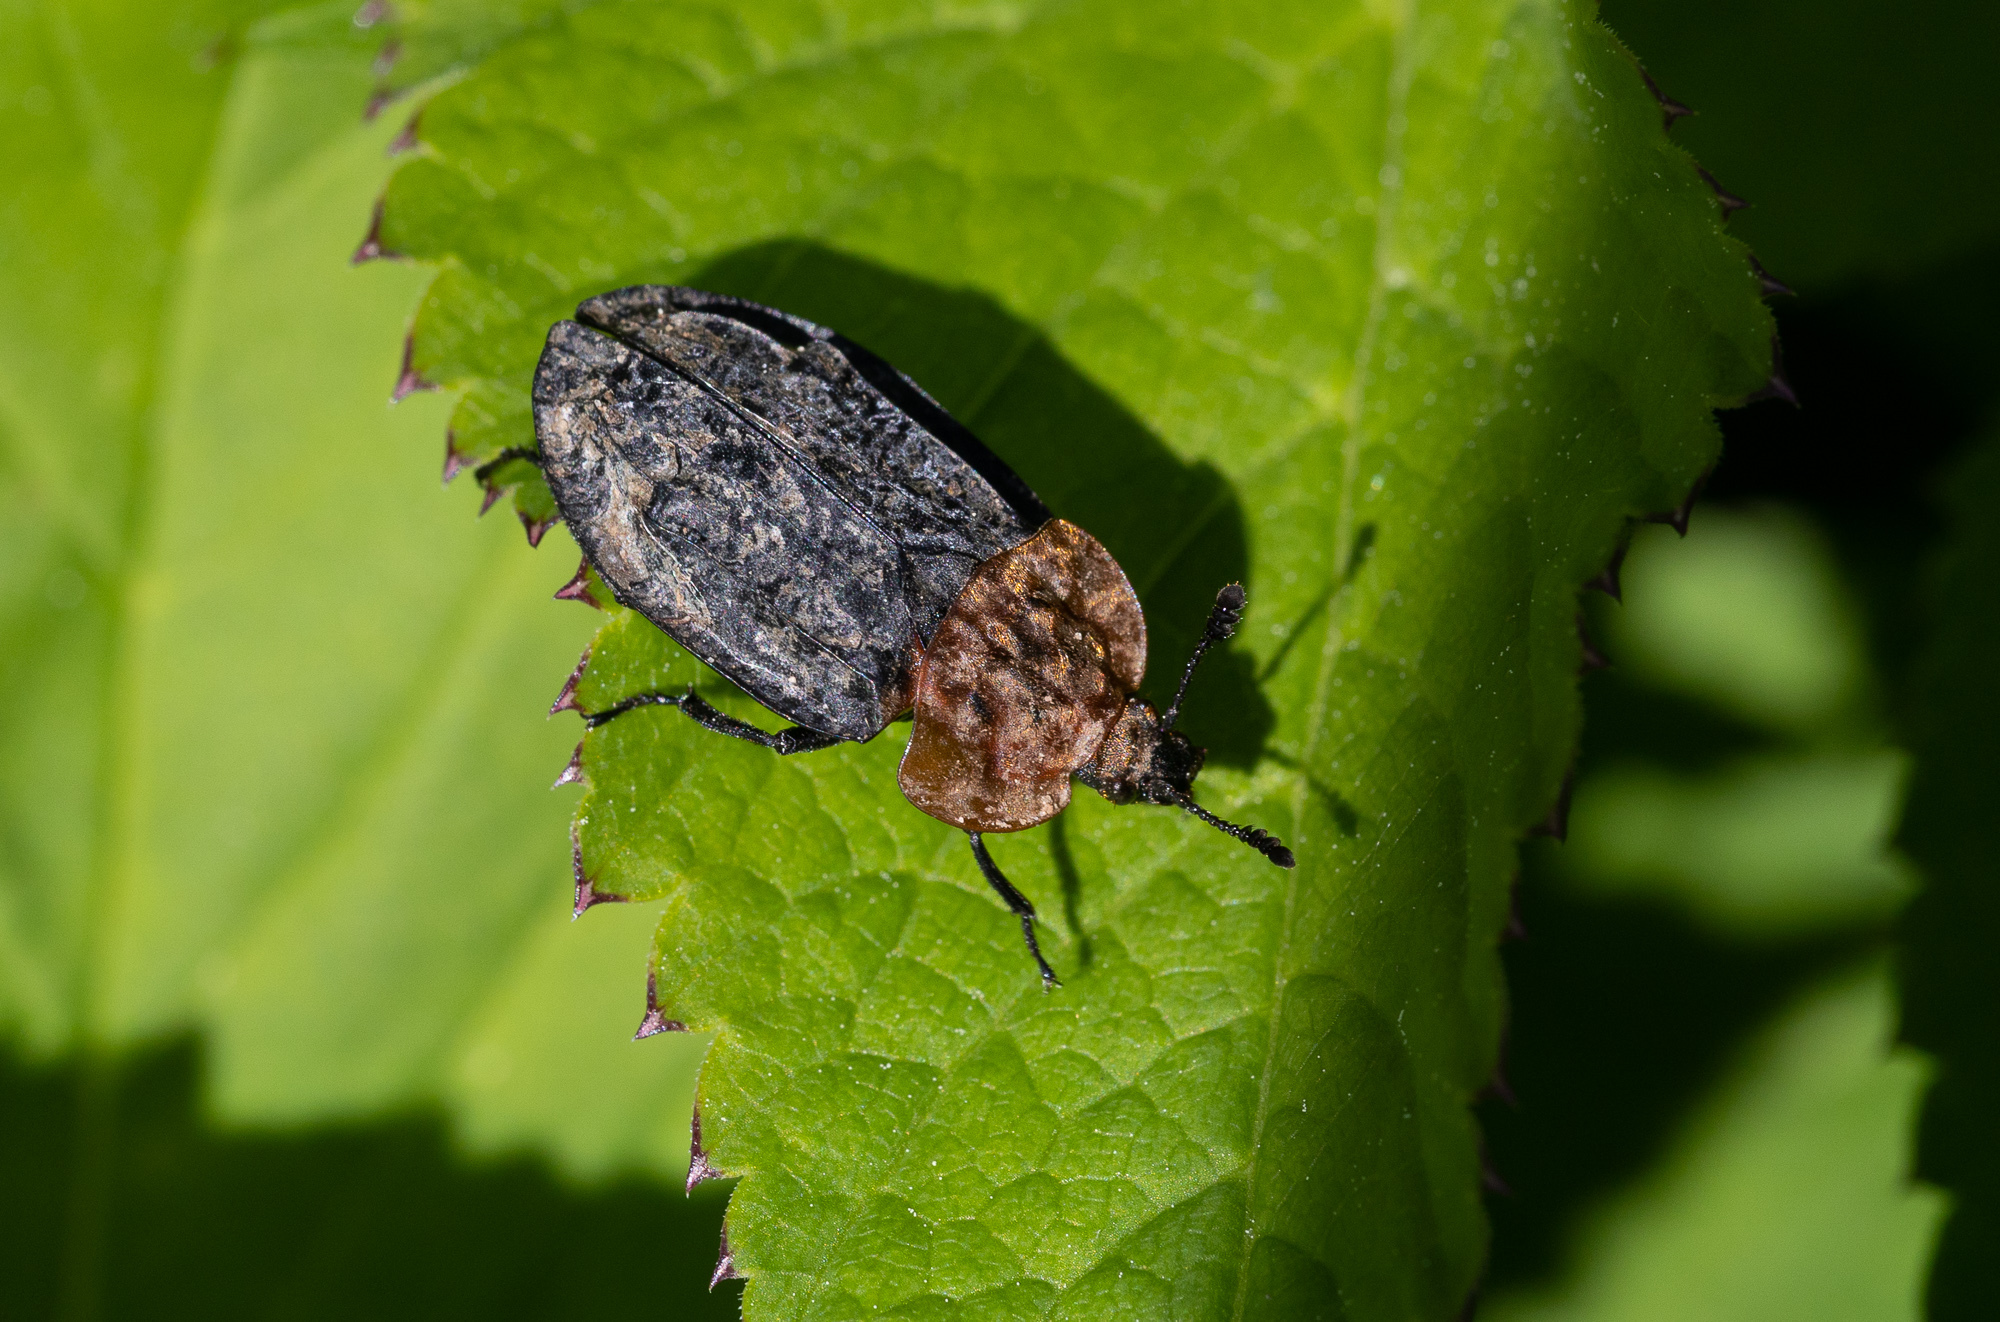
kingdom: Animalia
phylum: Arthropoda
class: Insecta
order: Coleoptera
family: Staphylinidae
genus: Oiceoptoma
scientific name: Oiceoptoma thoracicum
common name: Red-breasted carrion beetle
